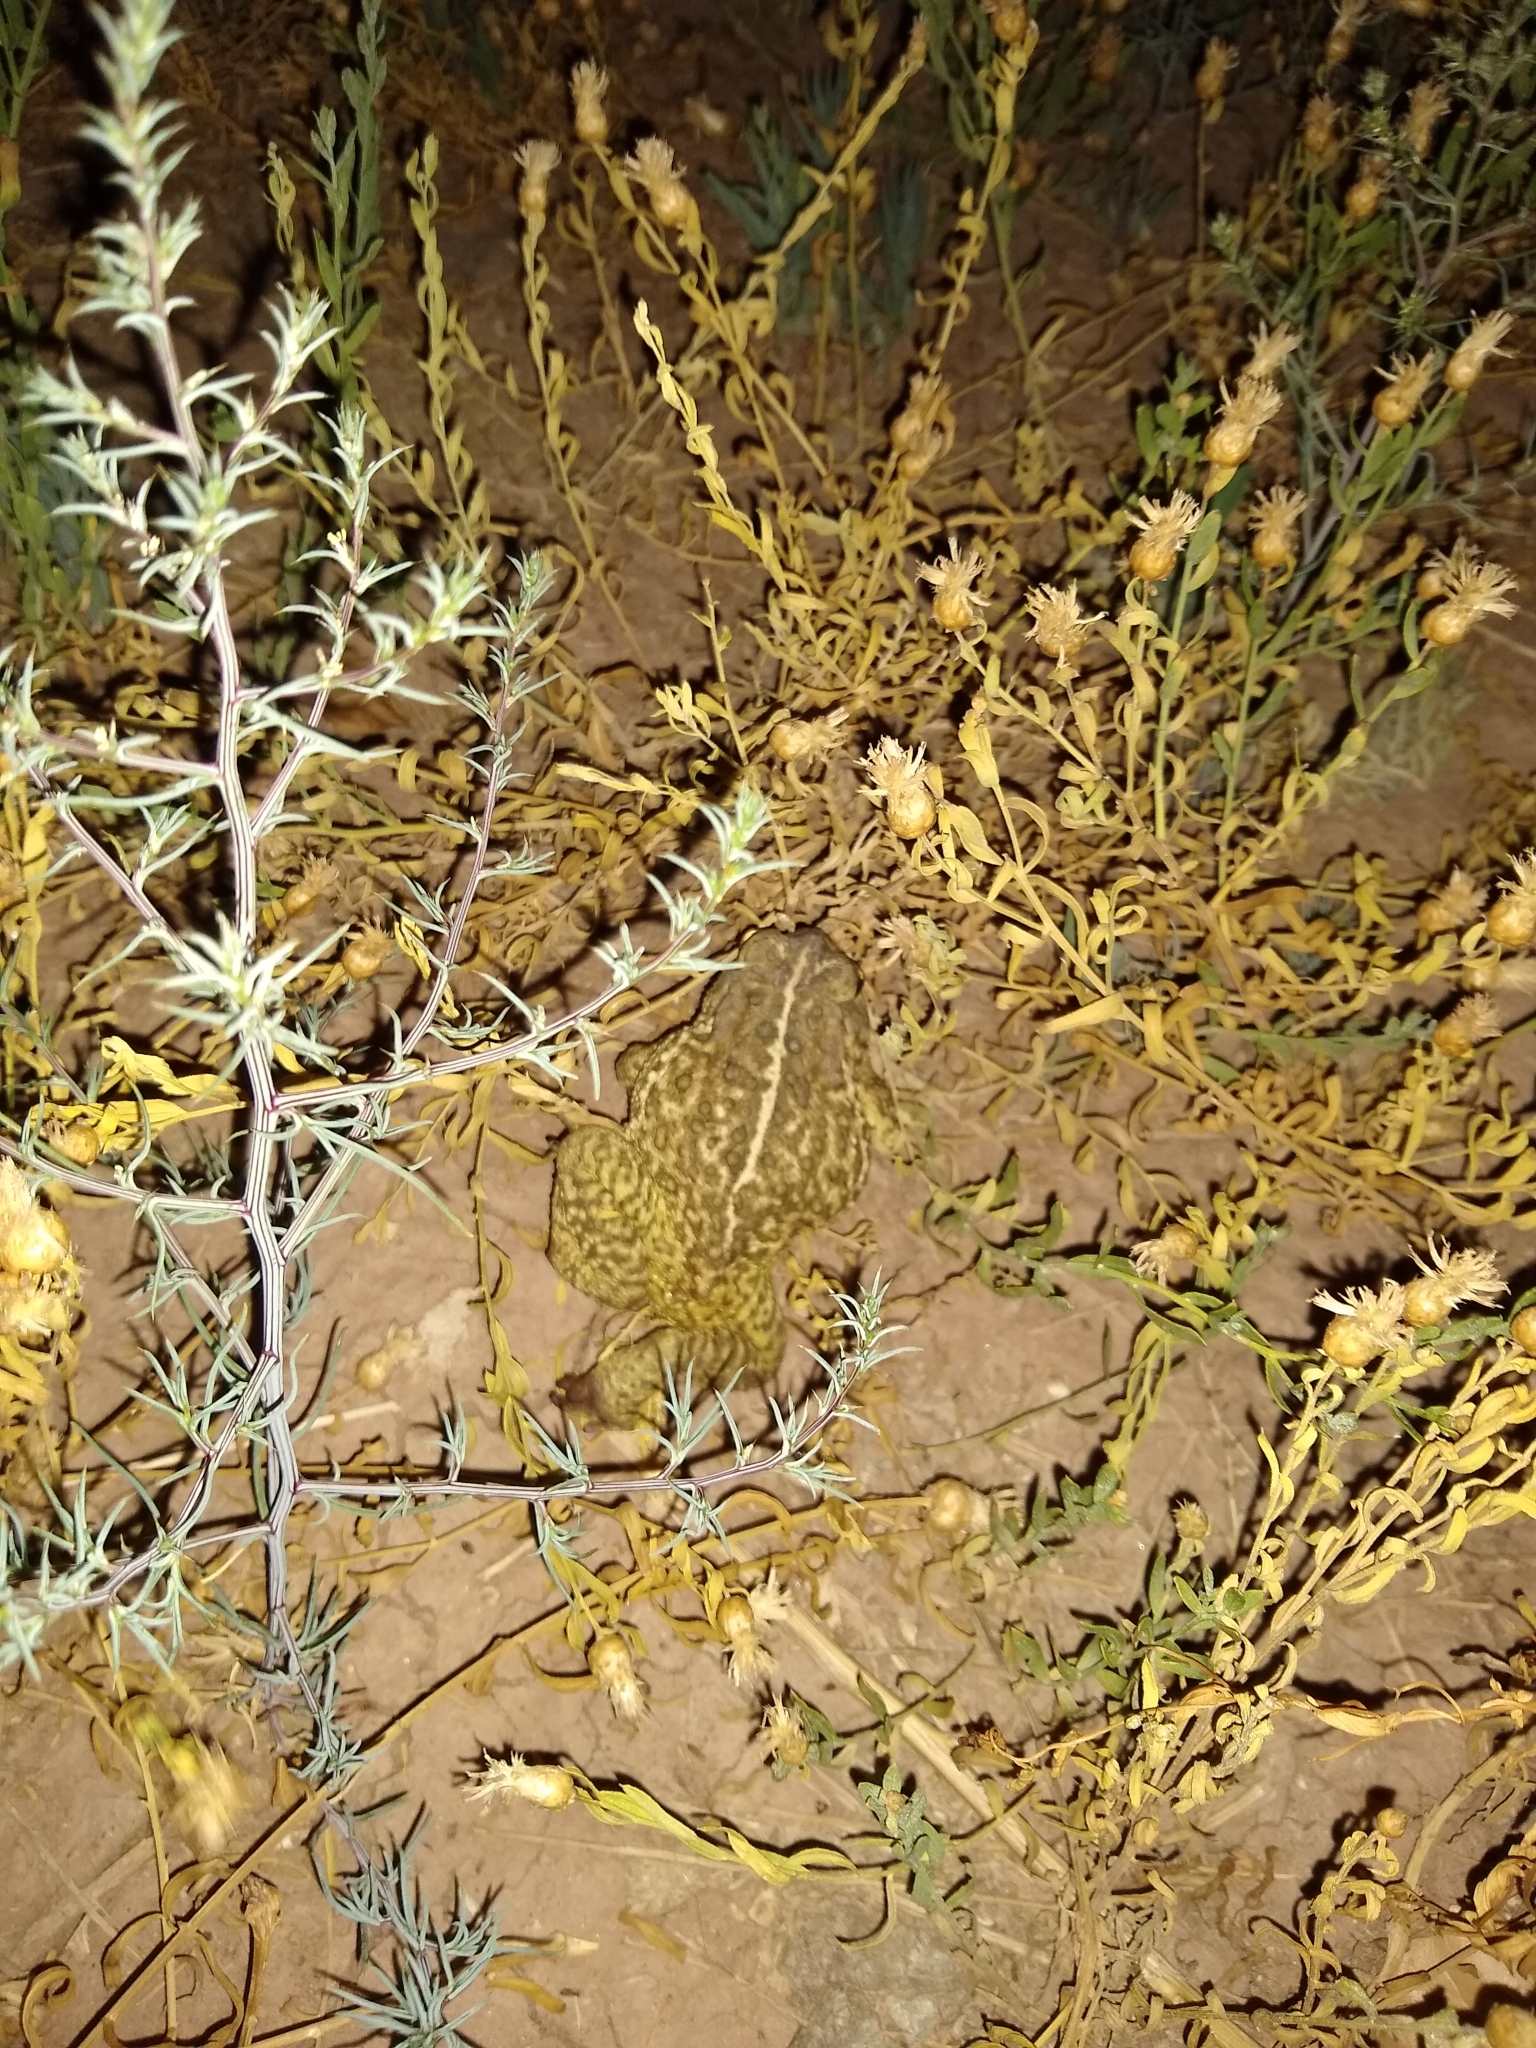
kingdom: Animalia
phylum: Chordata
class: Amphibia
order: Anura
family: Bufonidae
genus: Anaxyrus
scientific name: Anaxyrus woodhousii
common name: Woodhouse's toad
